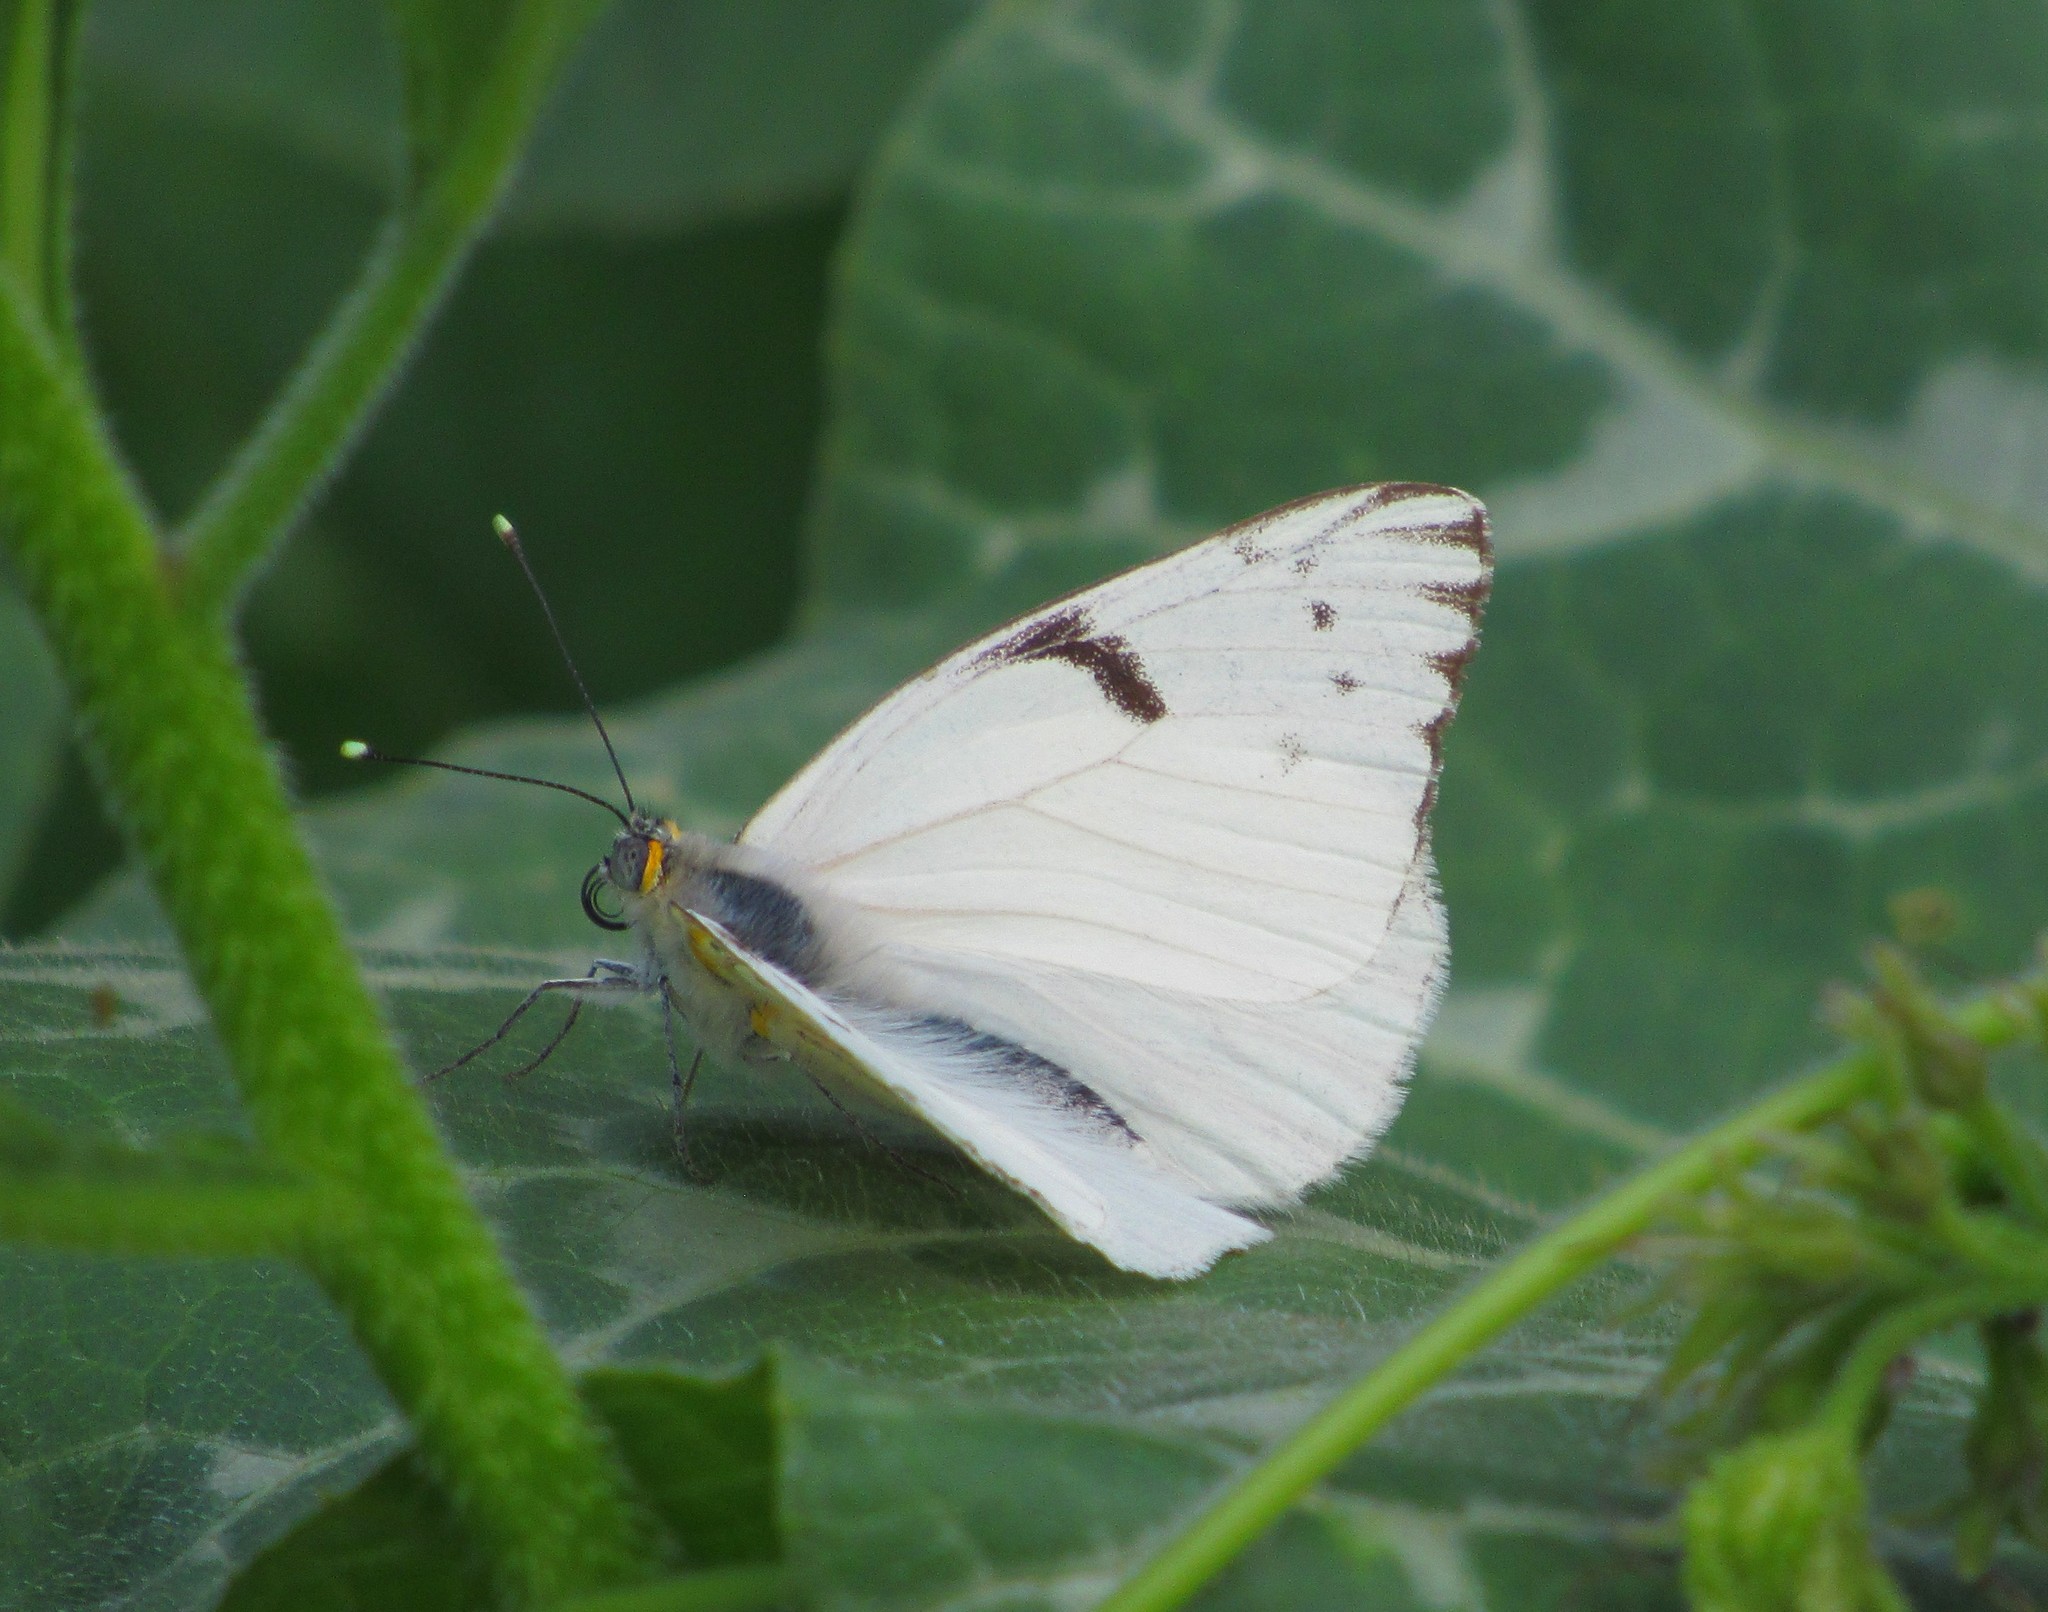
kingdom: Animalia
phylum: Arthropoda
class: Insecta
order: Lepidoptera
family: Pieridae
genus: Tatochila
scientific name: Tatochila autodice
